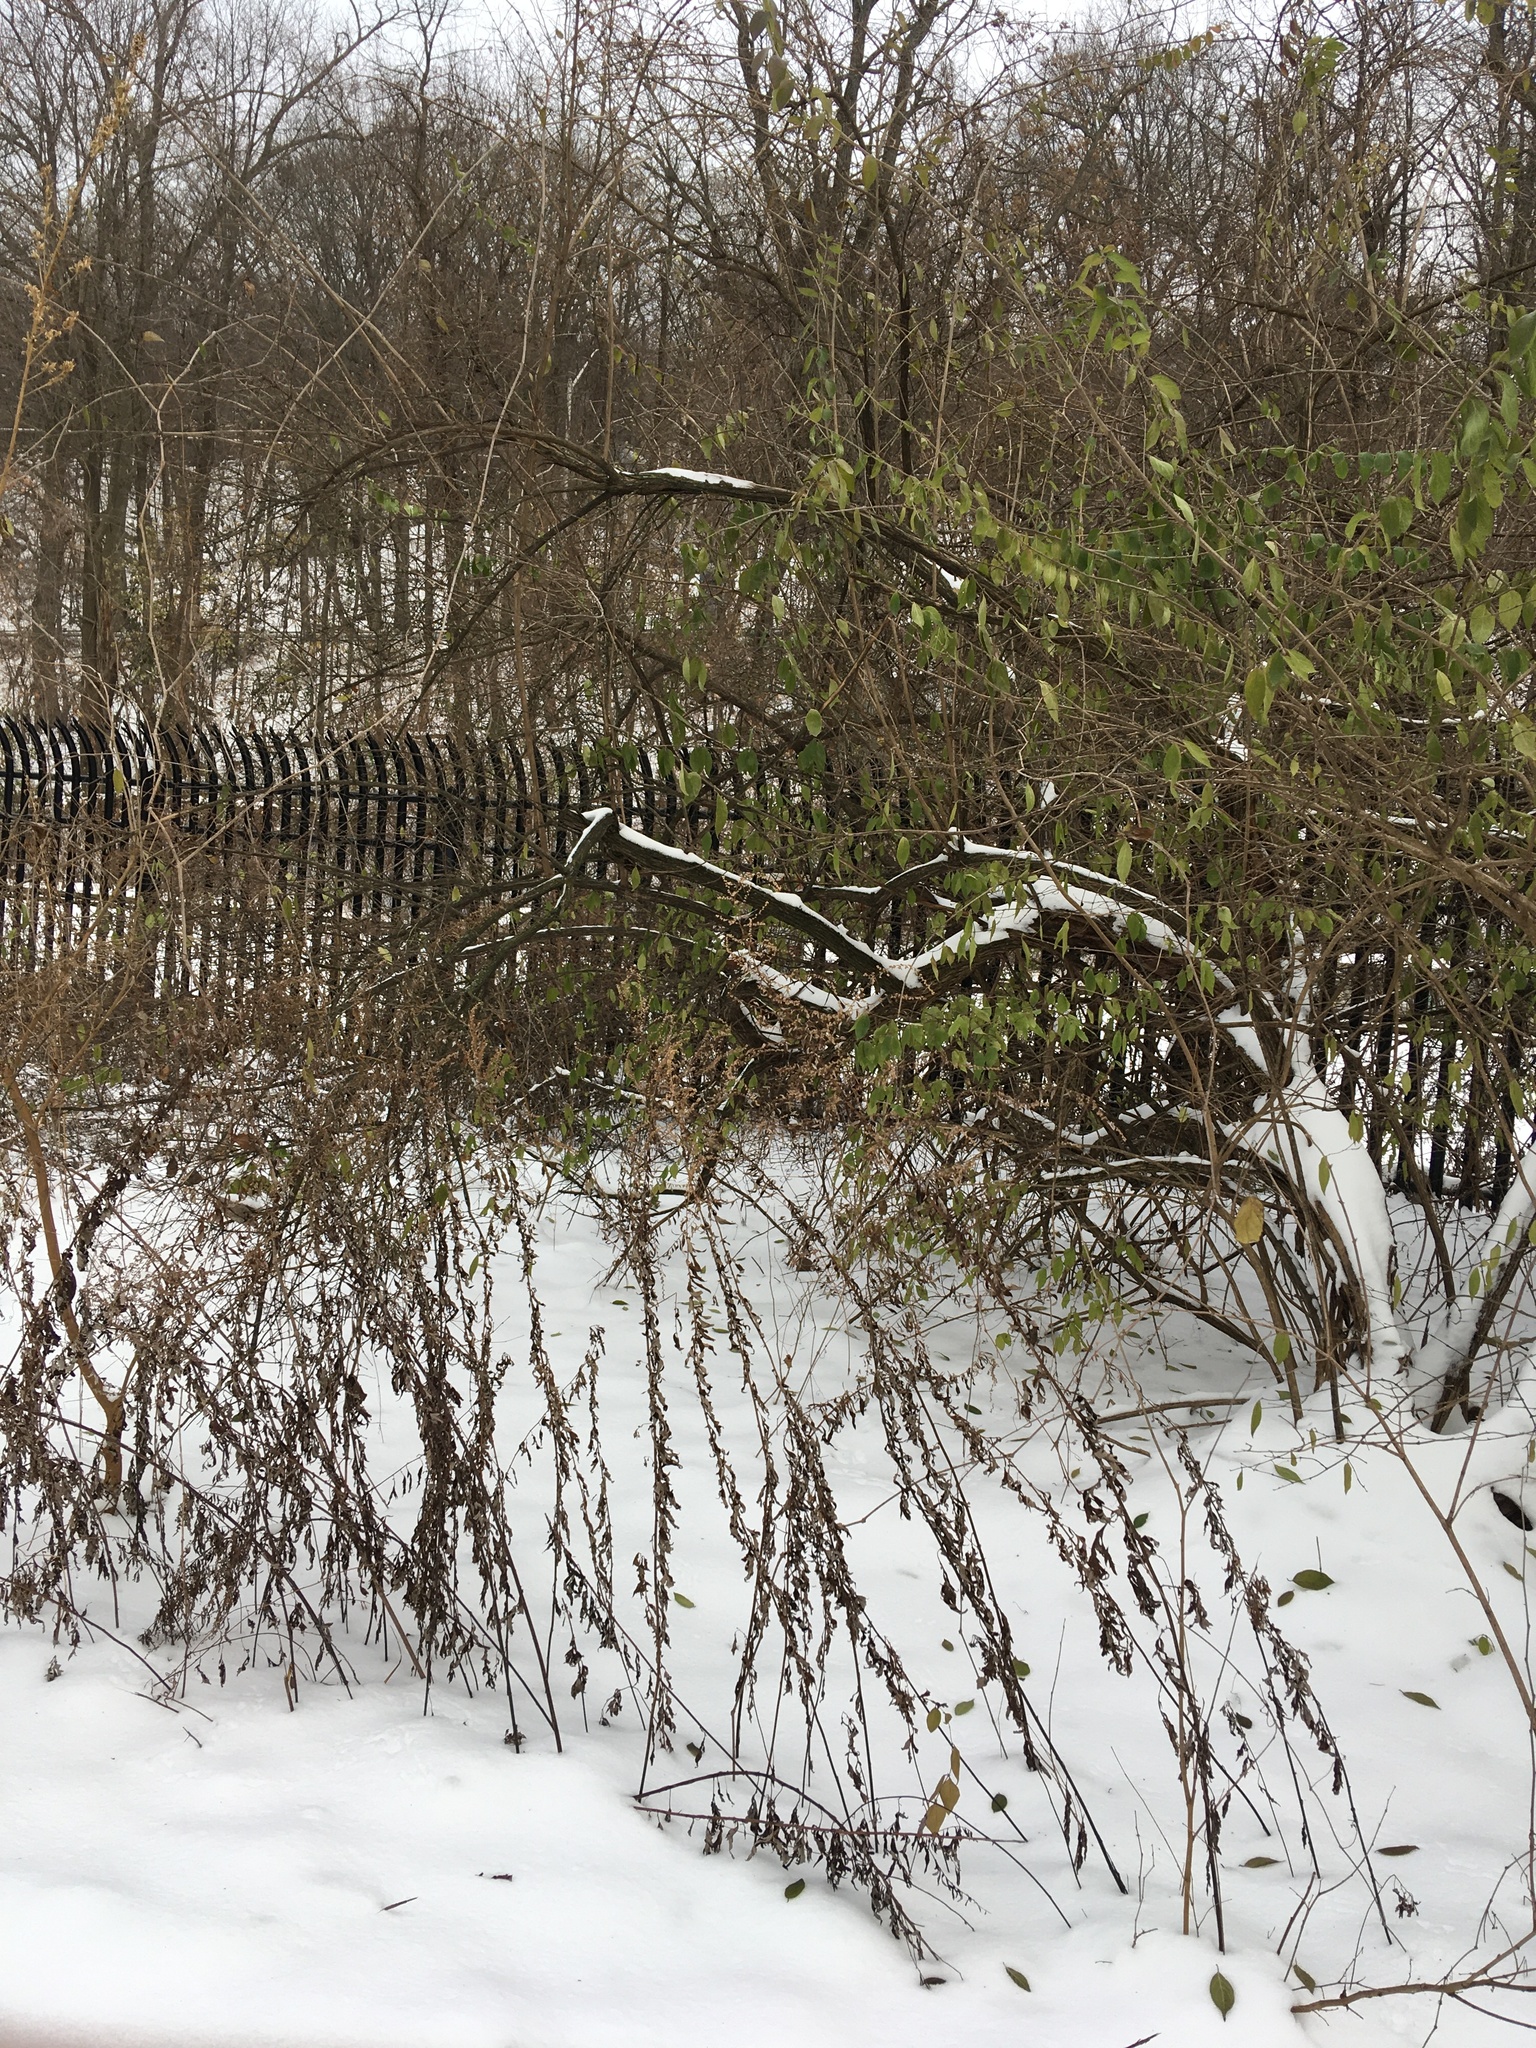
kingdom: Plantae
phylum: Tracheophyta
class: Magnoliopsida
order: Asterales
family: Asteraceae
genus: Artemisia
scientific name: Artemisia vulgaris
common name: Mugwort
